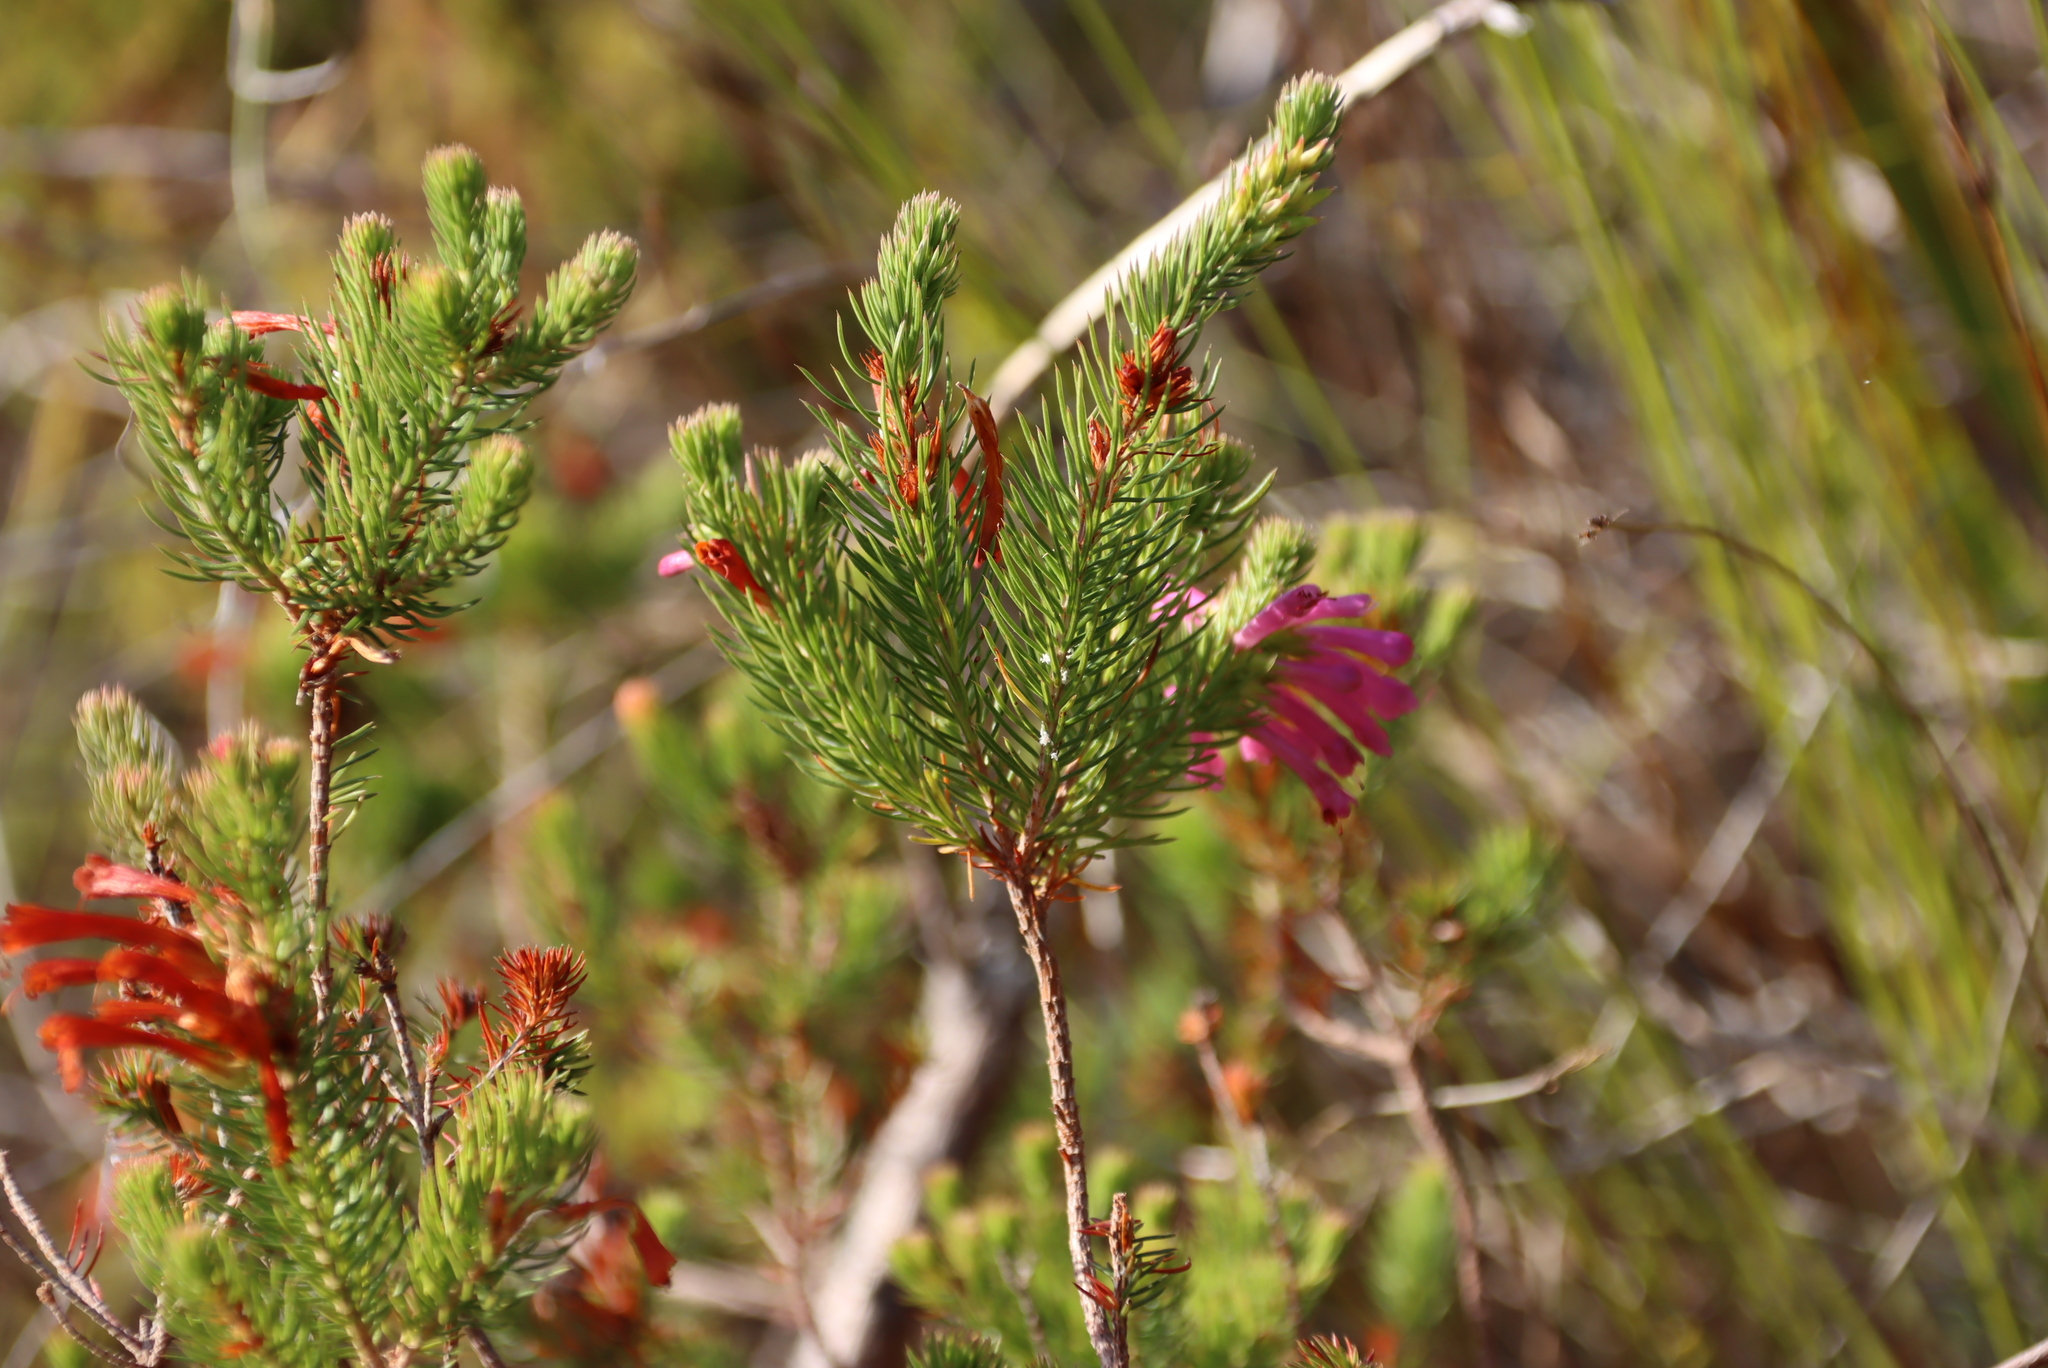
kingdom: Plantae
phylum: Tracheophyta
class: Magnoliopsida
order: Ericales
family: Ericaceae
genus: Erica
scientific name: Erica abietina
